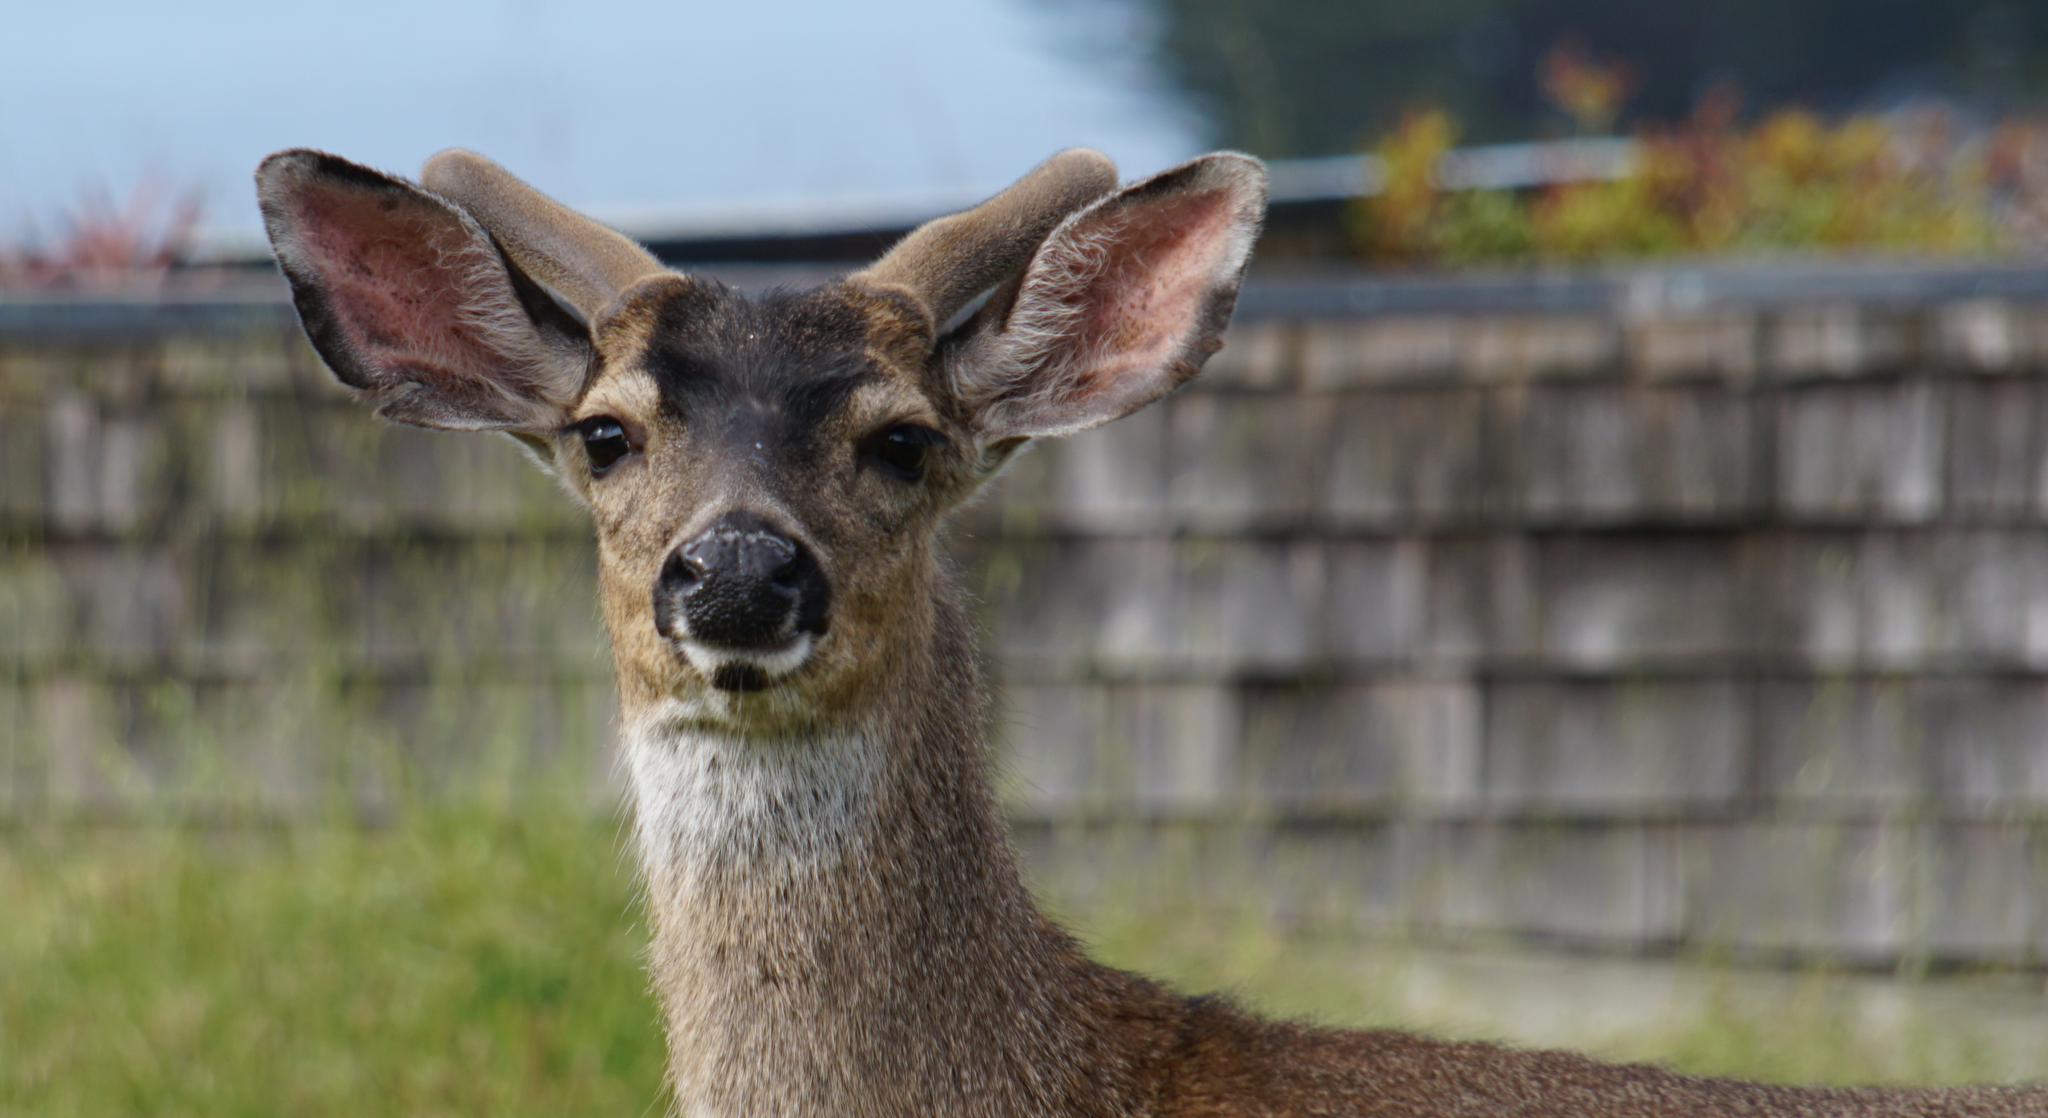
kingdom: Animalia
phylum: Chordata
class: Mammalia
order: Artiodactyla
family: Cervidae
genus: Odocoileus
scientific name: Odocoileus hemionus
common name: Mule deer
